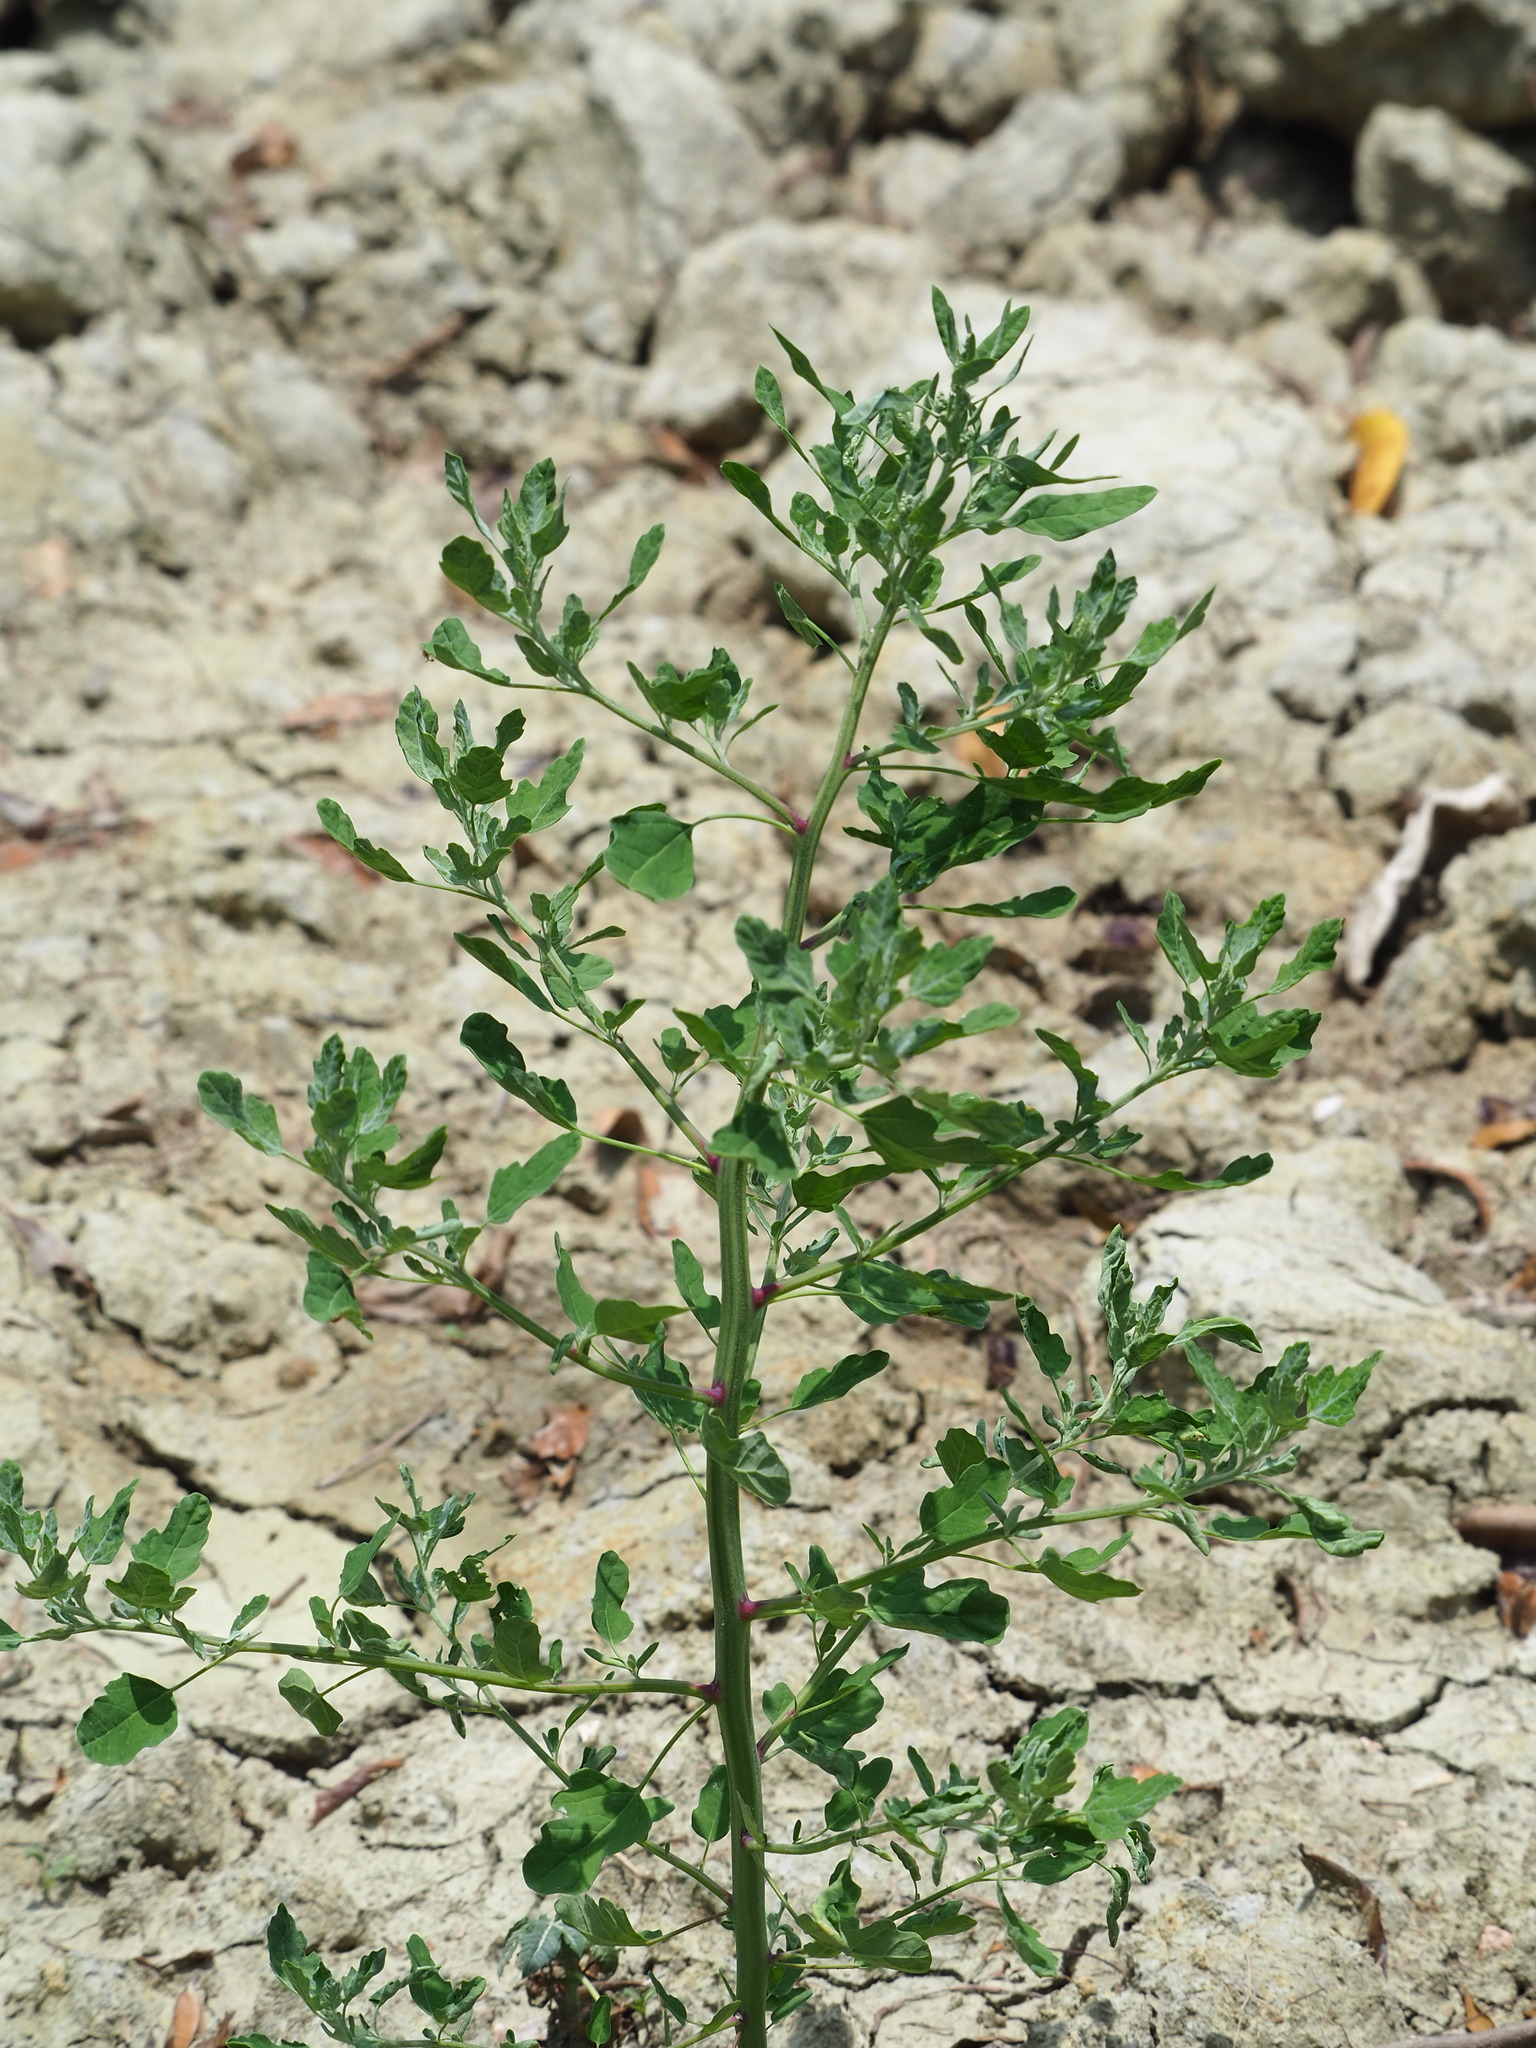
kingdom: Plantae
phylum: Tracheophyta
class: Magnoliopsida
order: Caryophyllales
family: Amaranthaceae
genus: Chenopodium
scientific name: Chenopodium ficifolium
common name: Fig-leaved goosefoot
